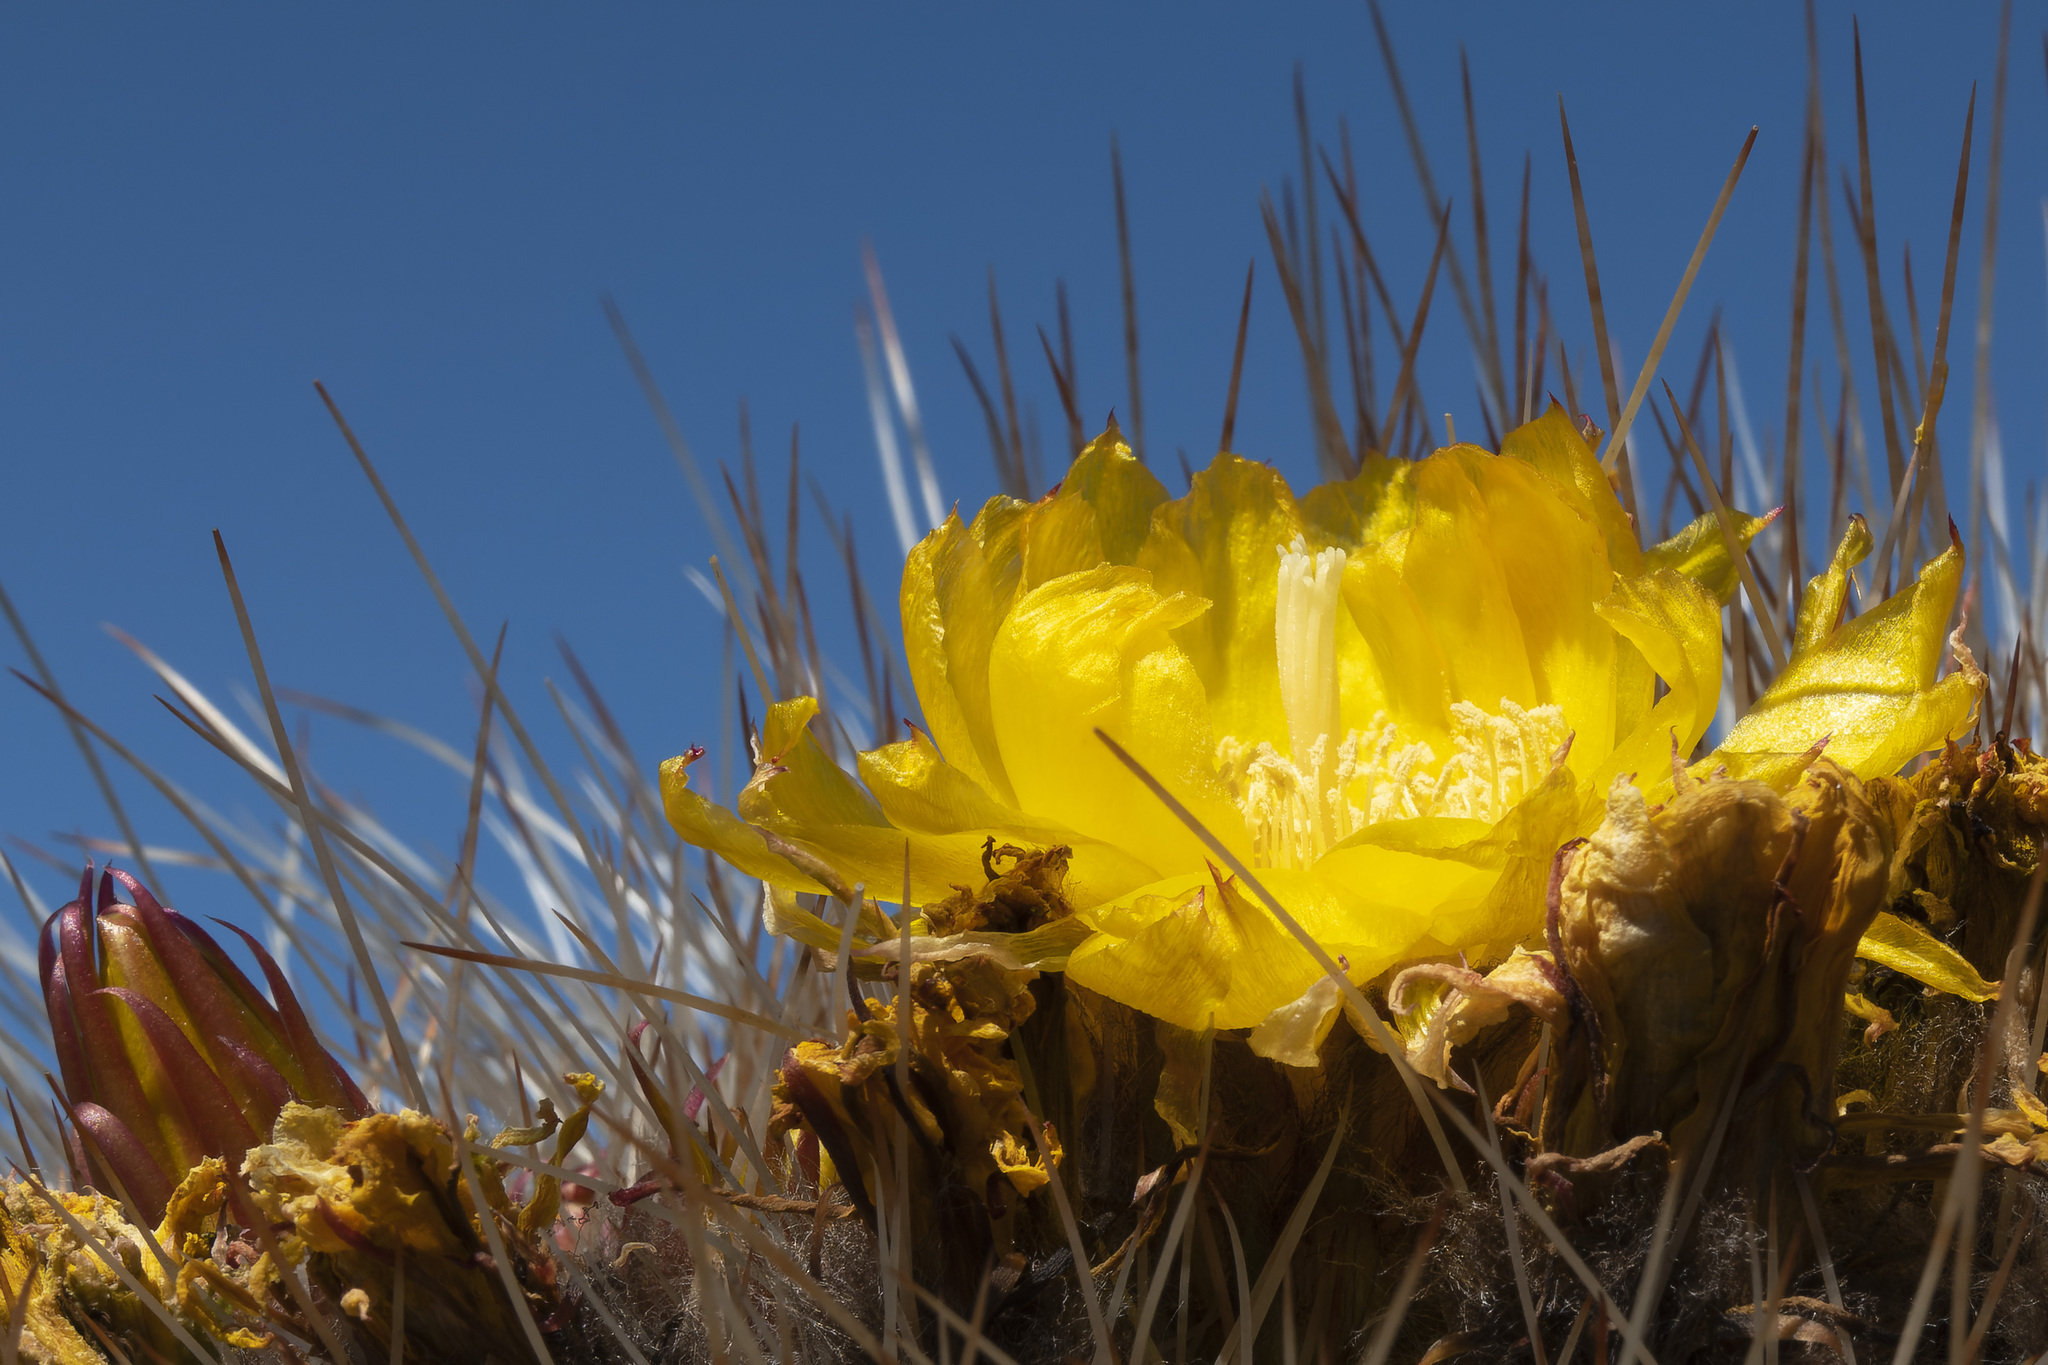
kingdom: Plantae
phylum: Tracheophyta
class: Magnoliopsida
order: Caryophyllales
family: Cactaceae
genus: Soehrensia
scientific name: Soehrensia formosa
